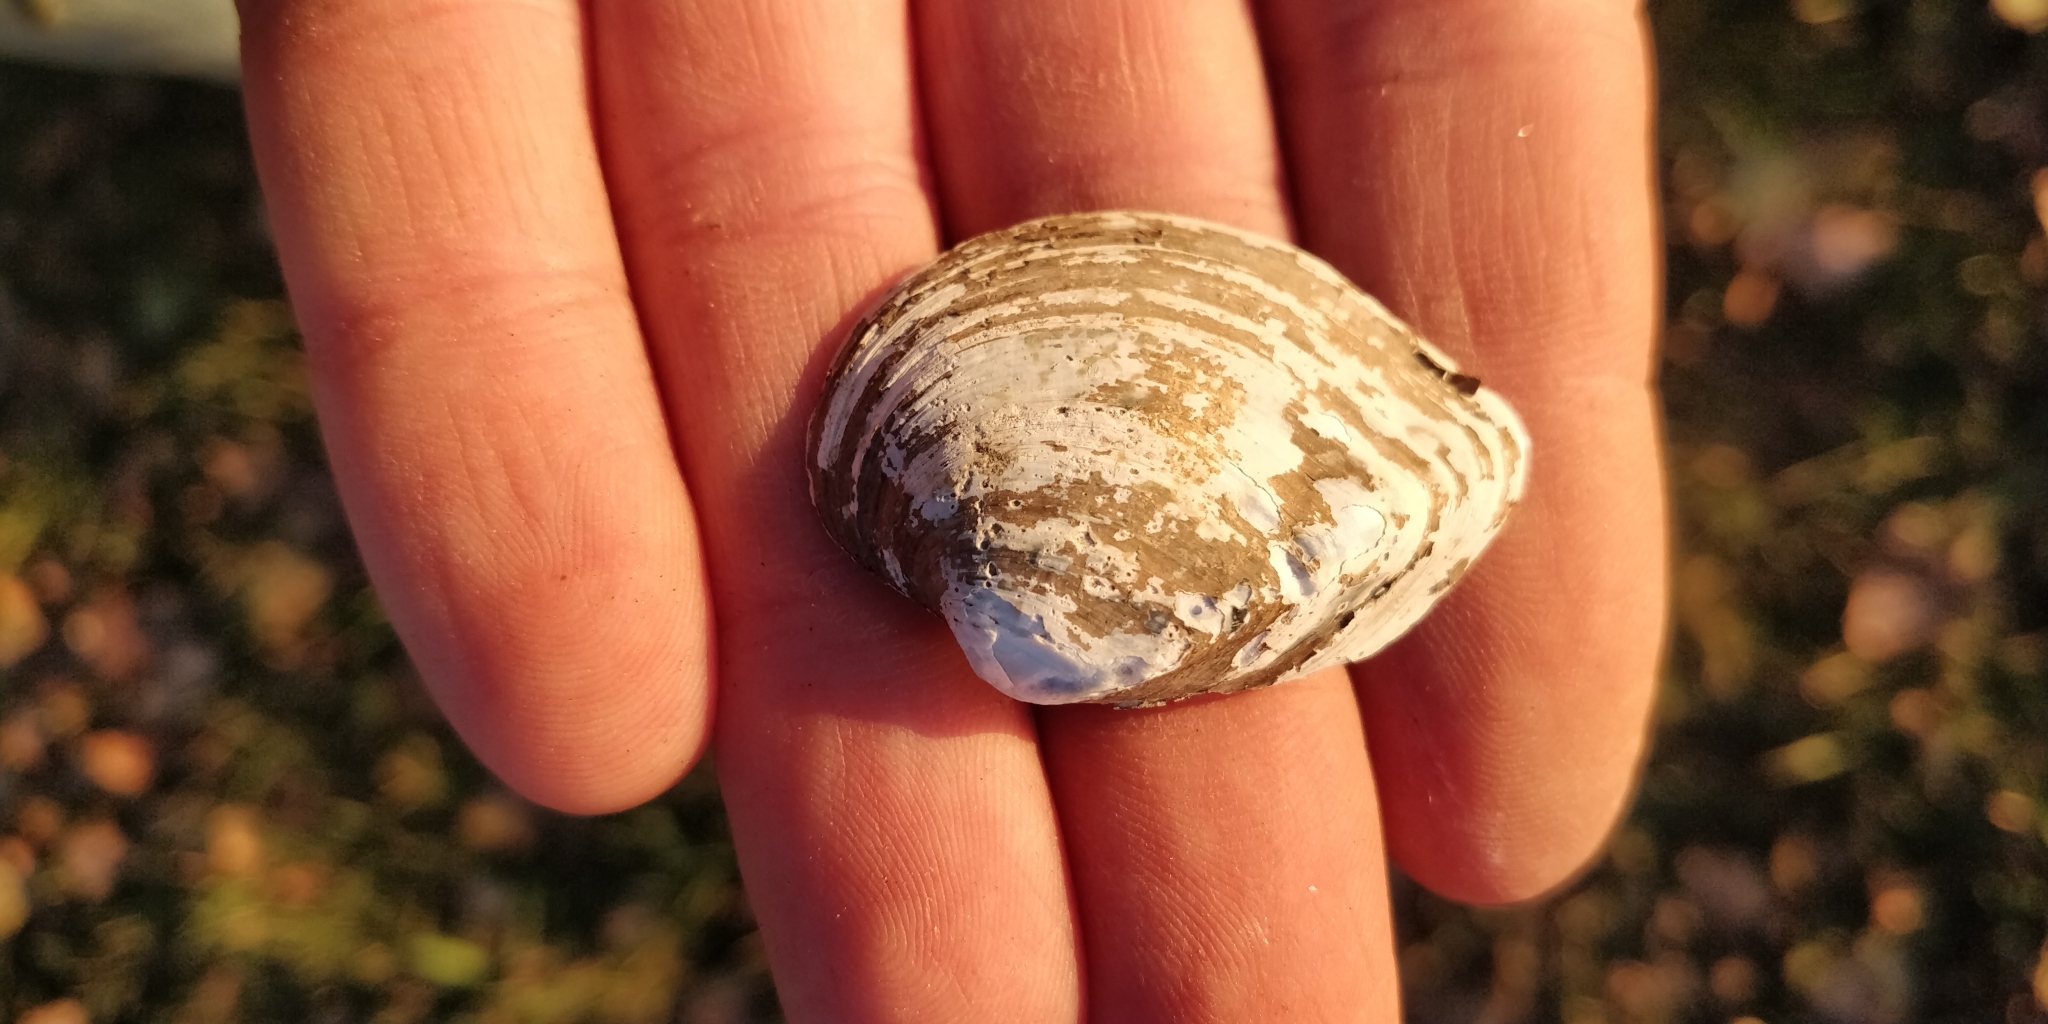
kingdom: Animalia
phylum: Mollusca
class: Bivalvia
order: Unionida
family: Unionidae
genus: Truncilla
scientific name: Truncilla truncata
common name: Deertoe
